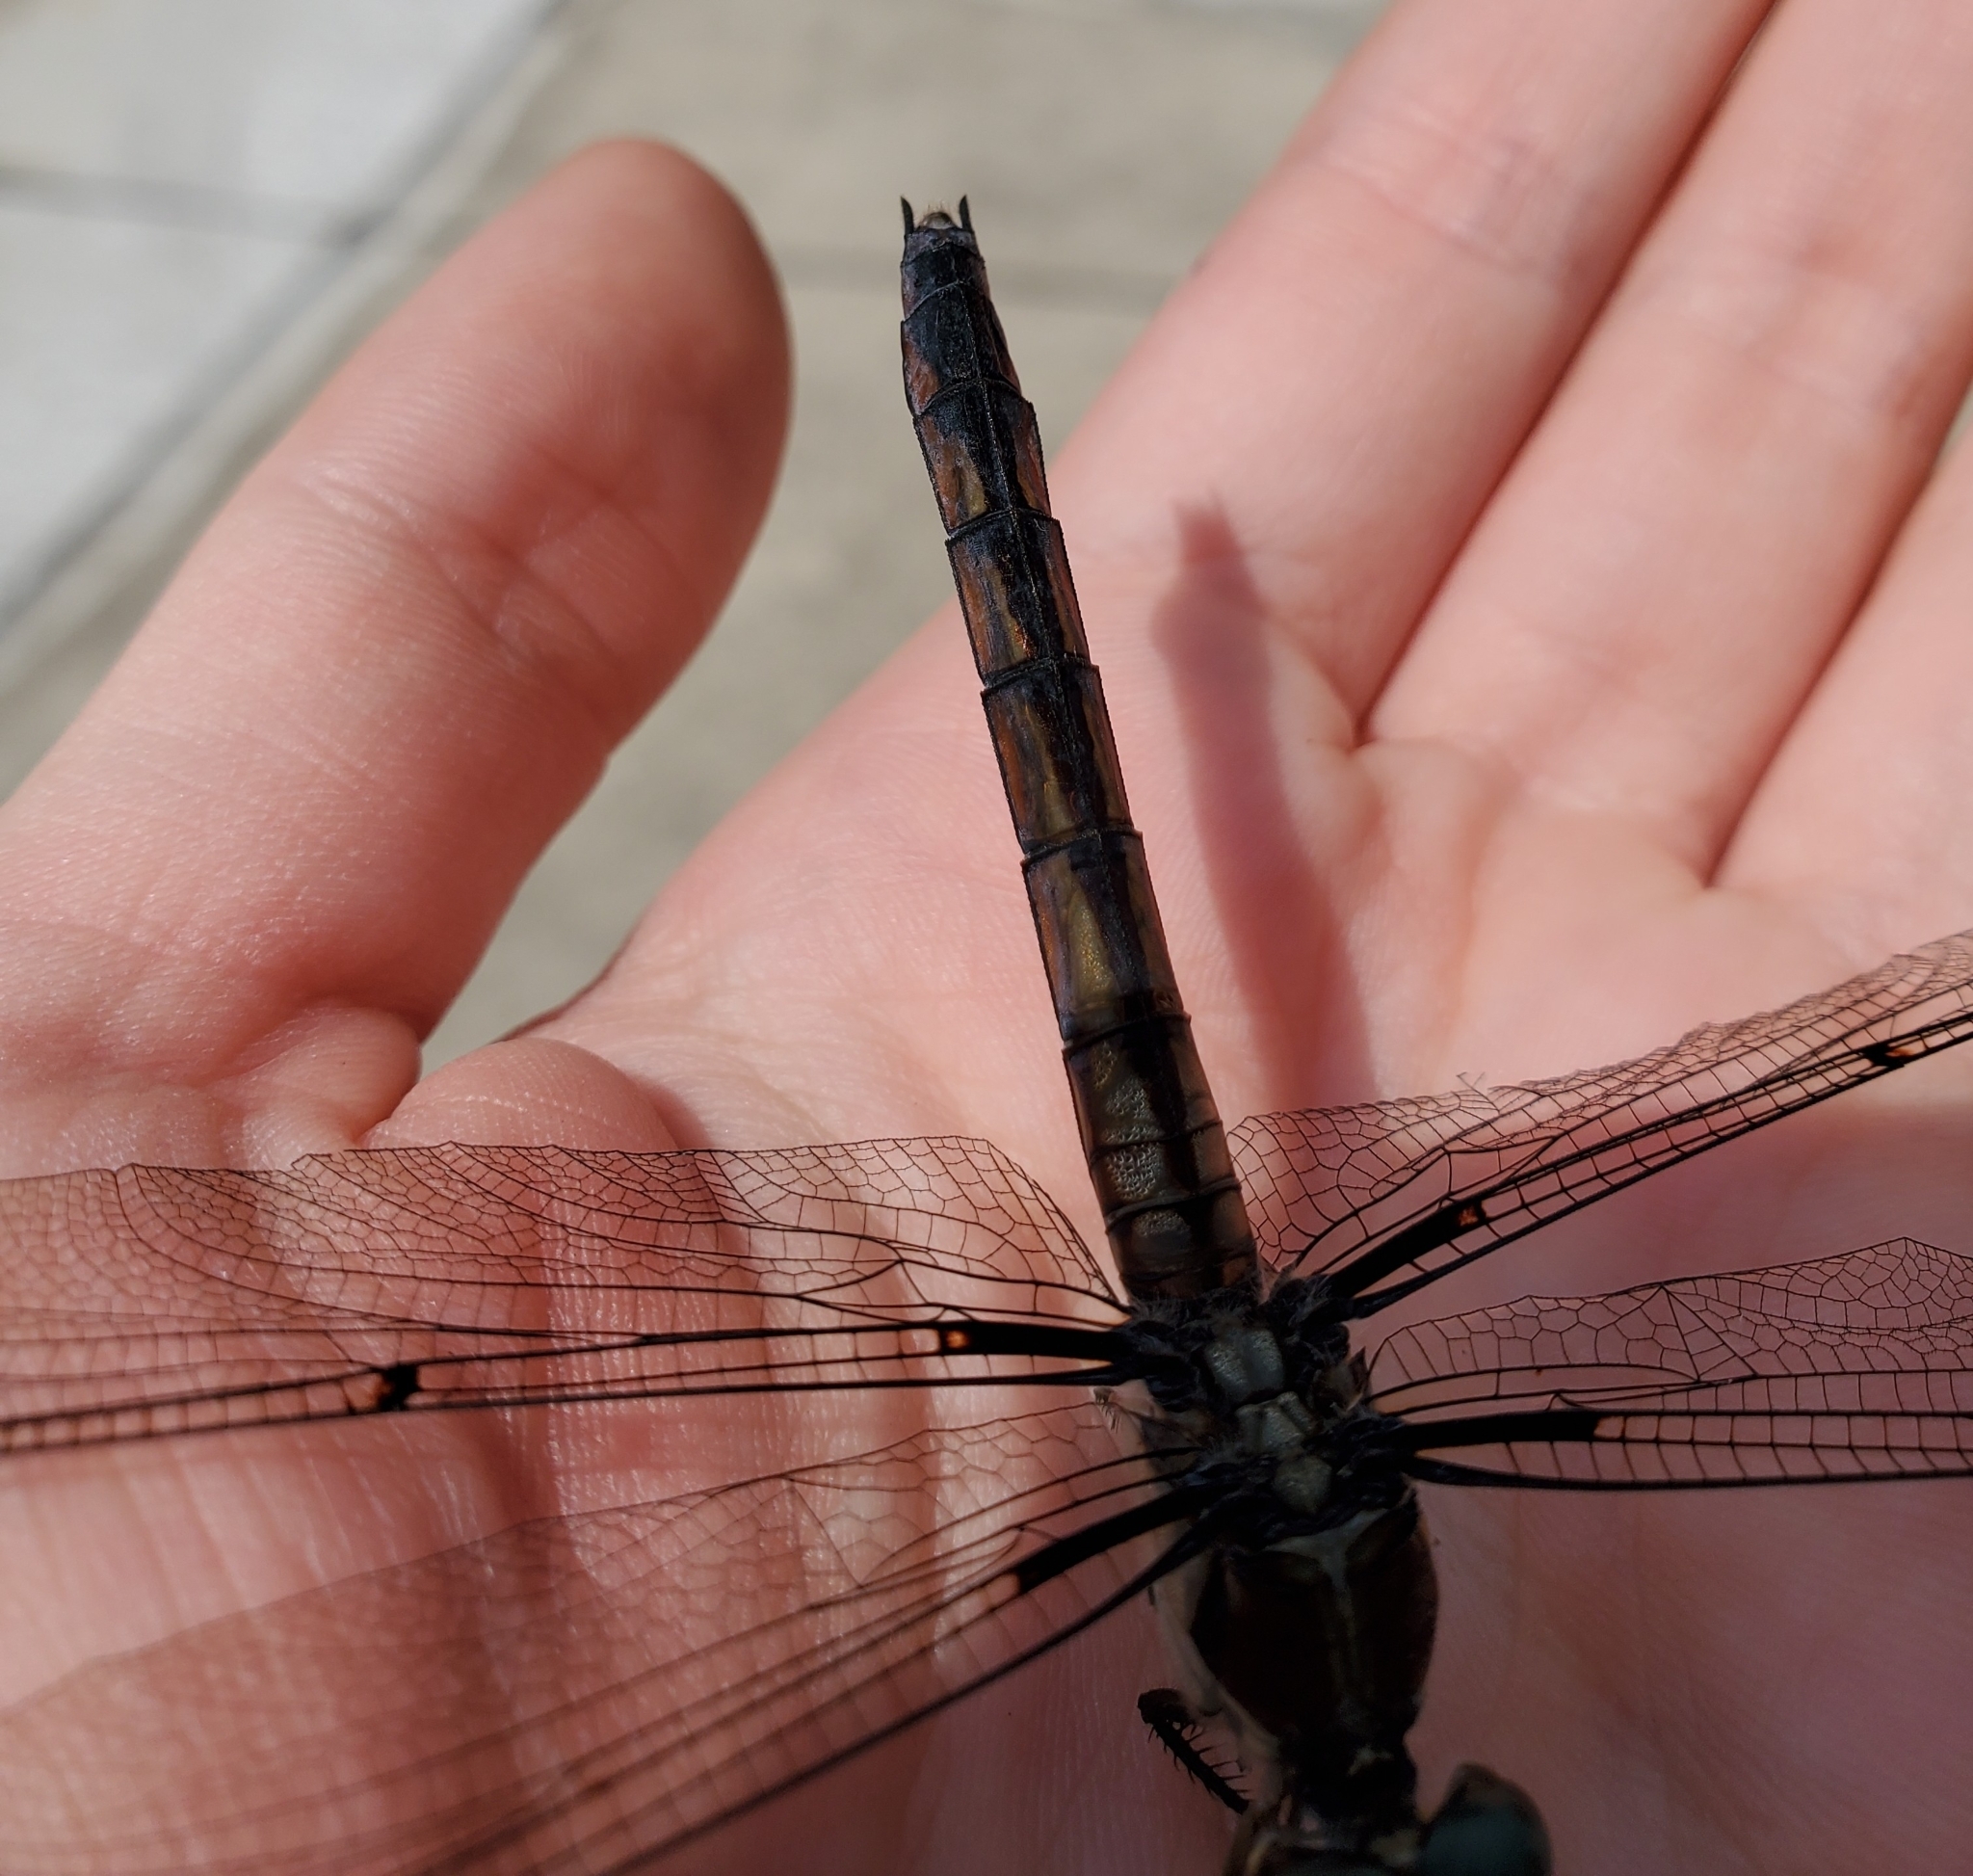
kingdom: Animalia
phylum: Arthropoda
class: Insecta
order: Odonata
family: Libellulidae
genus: Libellula
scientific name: Libellula vibrans
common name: Great blue skimmer
